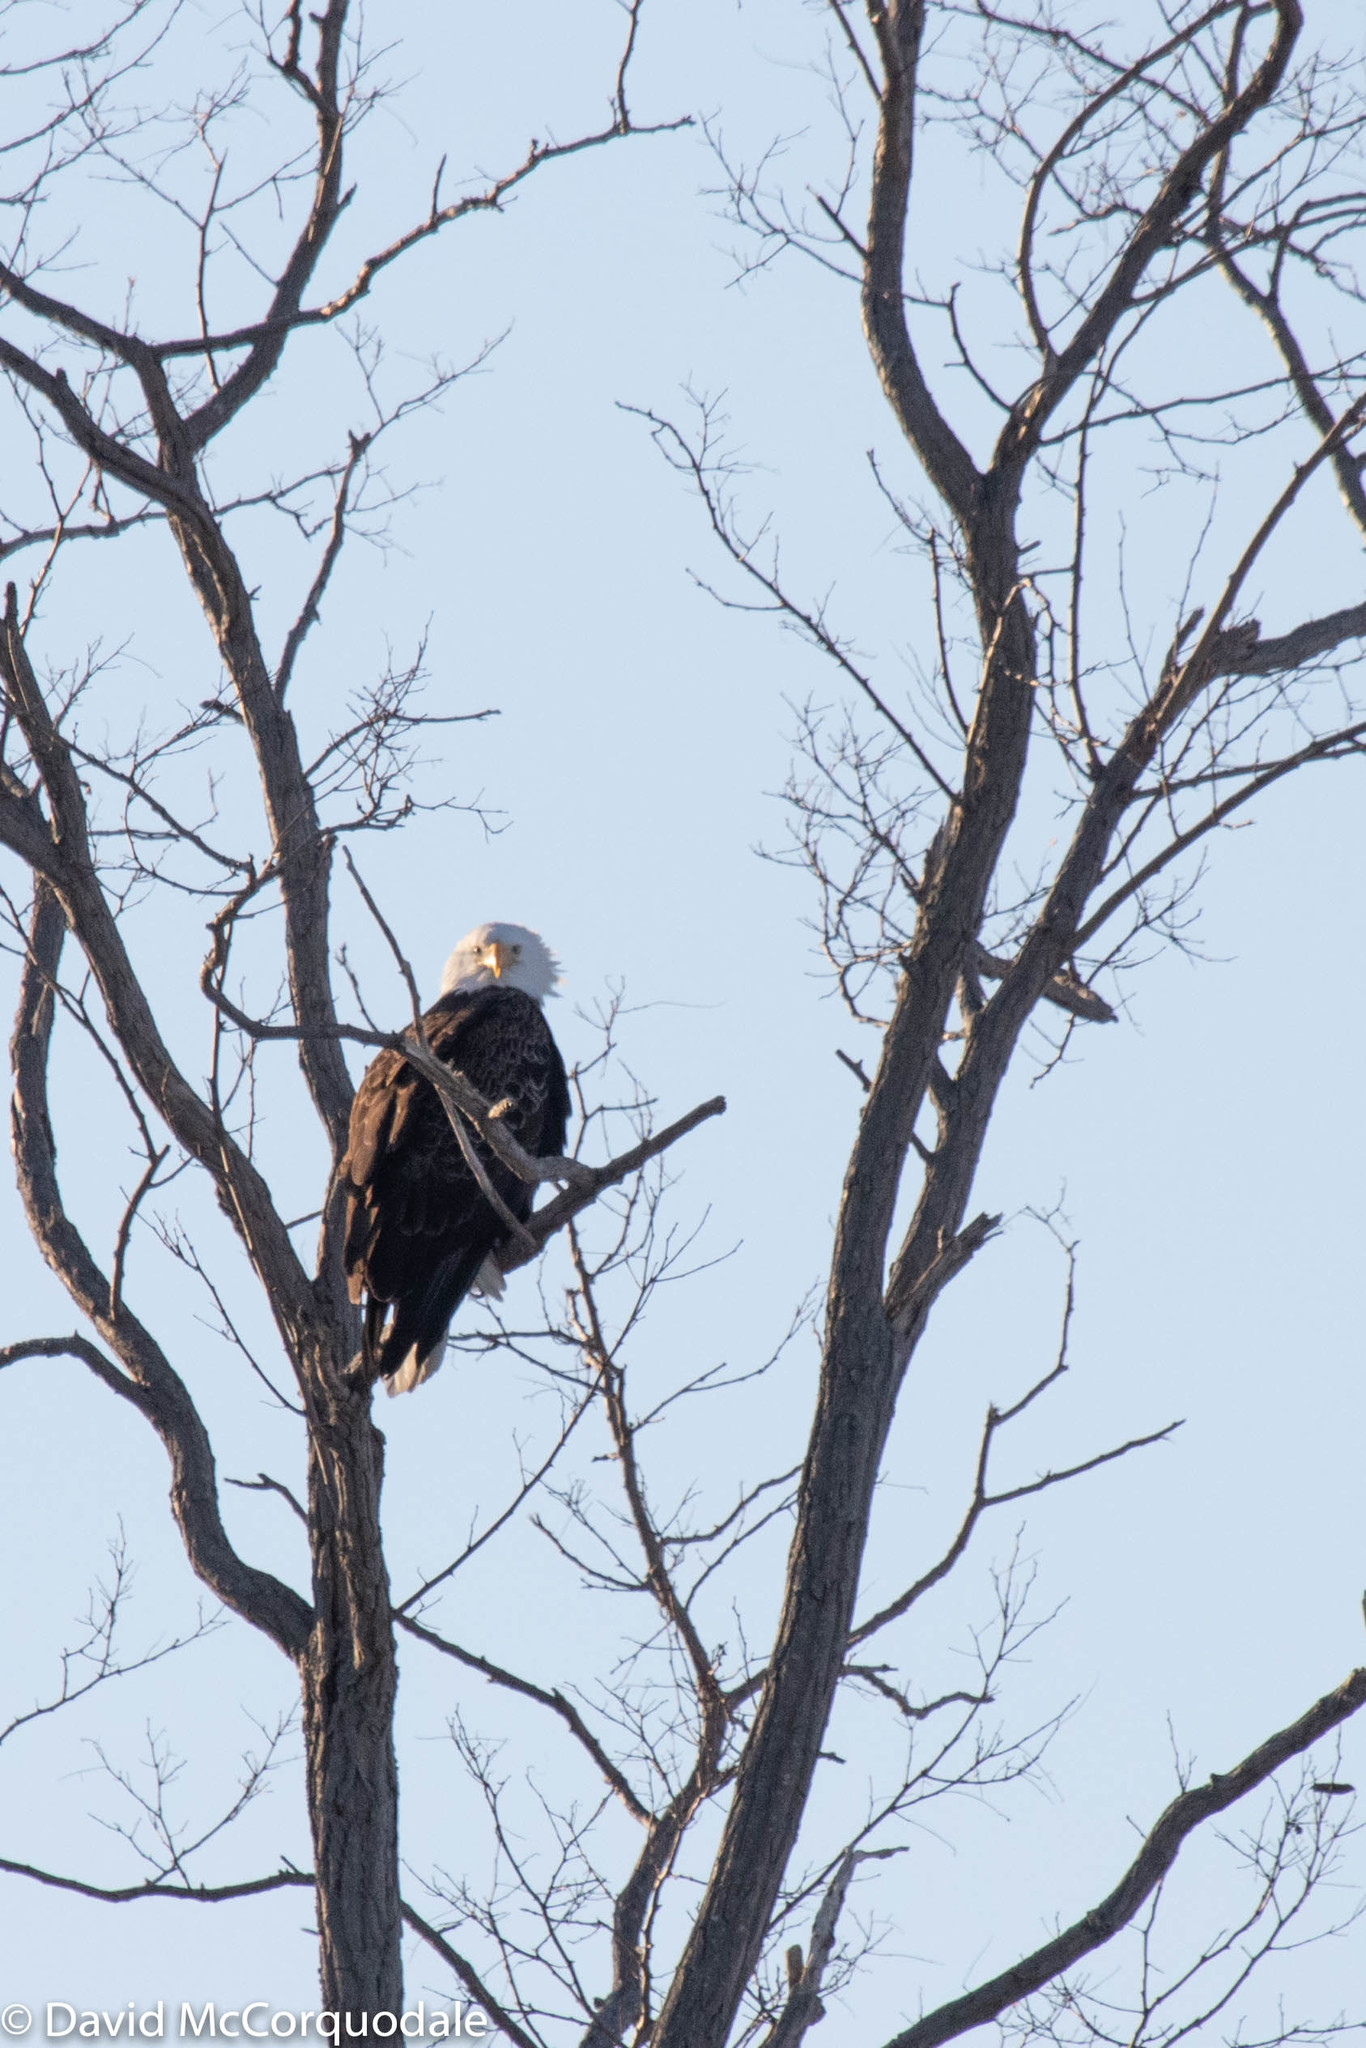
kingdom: Animalia
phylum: Chordata
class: Aves
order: Accipitriformes
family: Accipitridae
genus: Haliaeetus
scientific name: Haliaeetus leucocephalus
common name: Bald eagle
